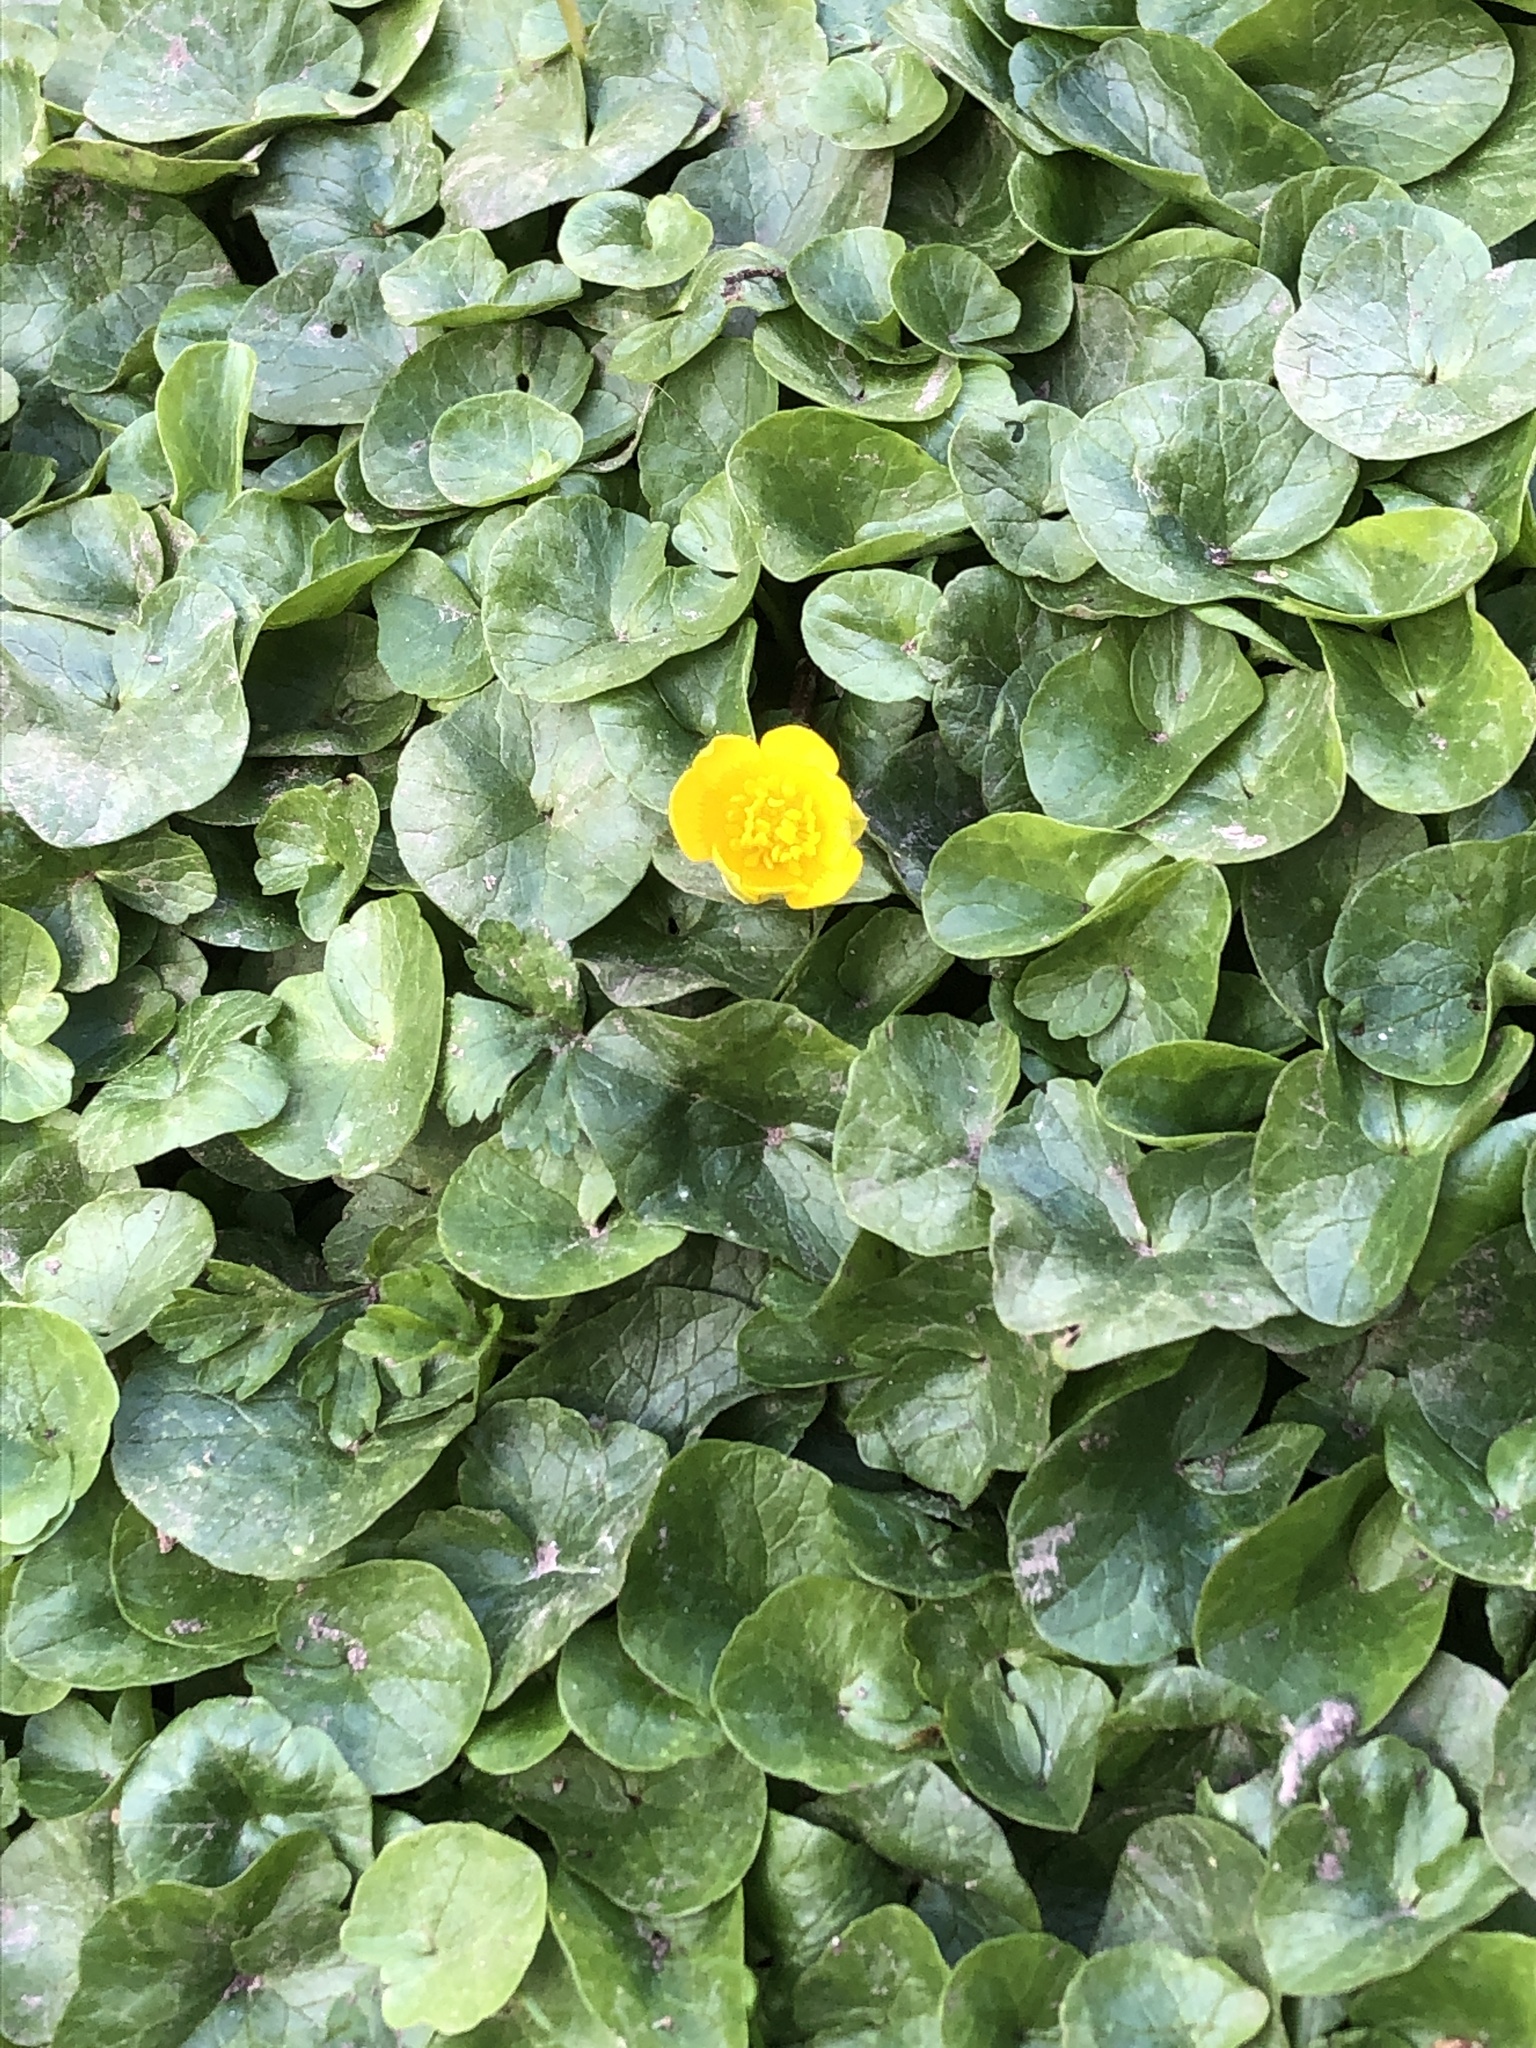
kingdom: Plantae
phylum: Tracheophyta
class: Magnoliopsida
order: Ranunculales
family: Ranunculaceae
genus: Ficaria
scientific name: Ficaria verna
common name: Lesser celandine
